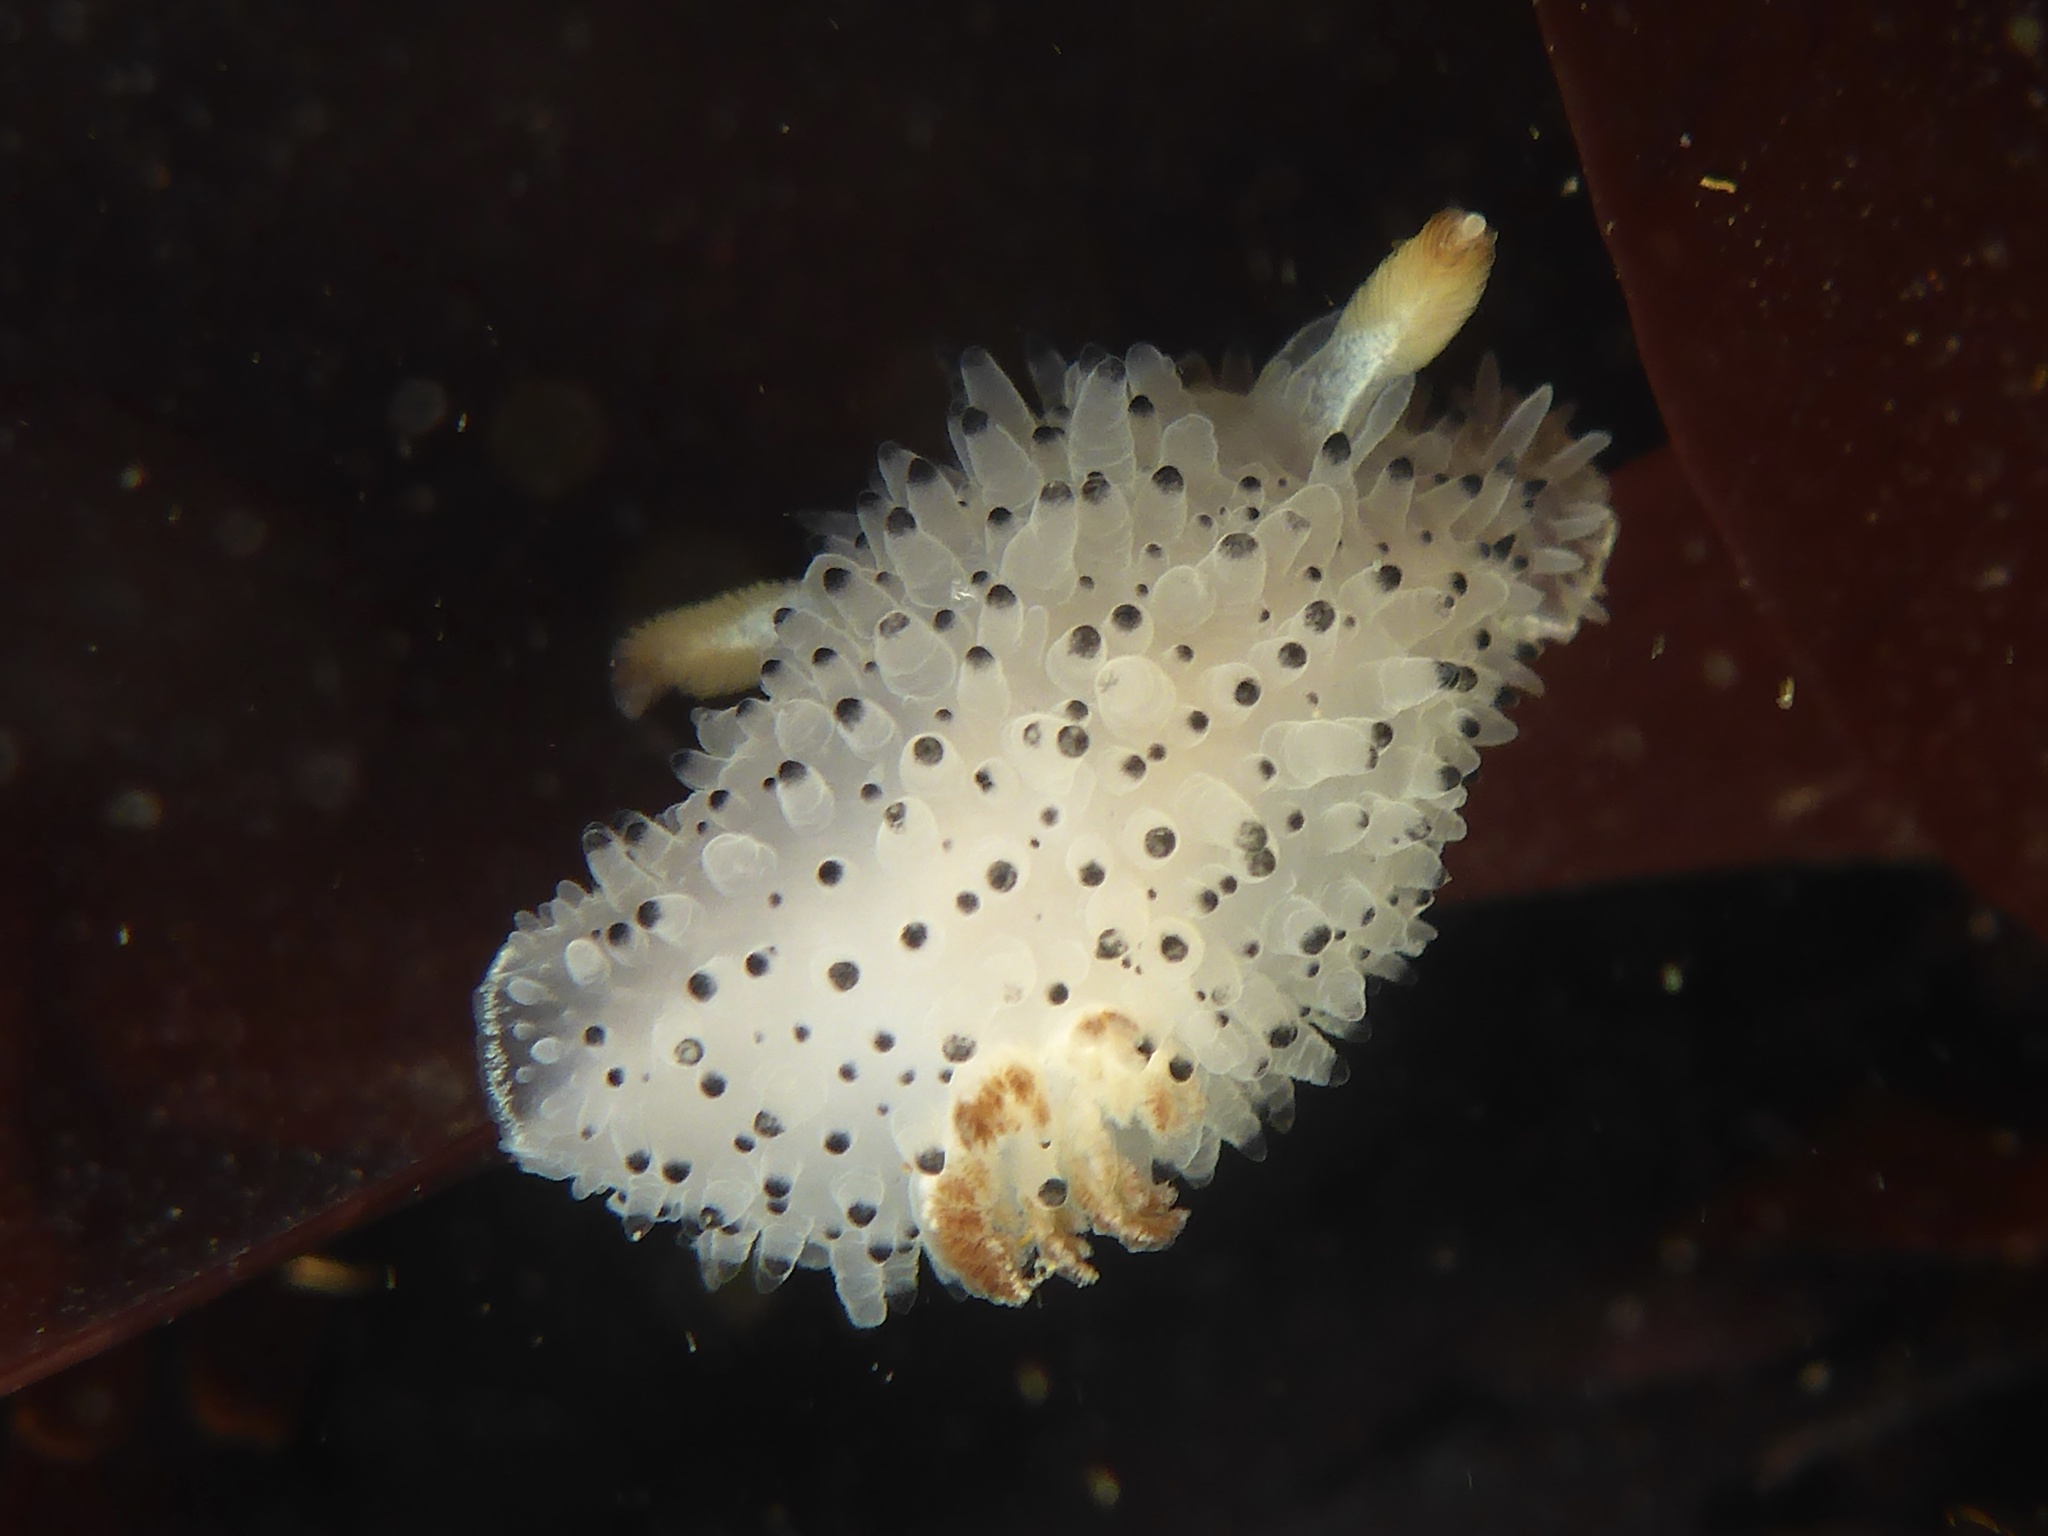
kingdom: Animalia
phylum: Mollusca
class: Gastropoda
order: Nudibranchia
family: Onchidorididae
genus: Acanthodoris
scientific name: Acanthodoris rhodoceras
